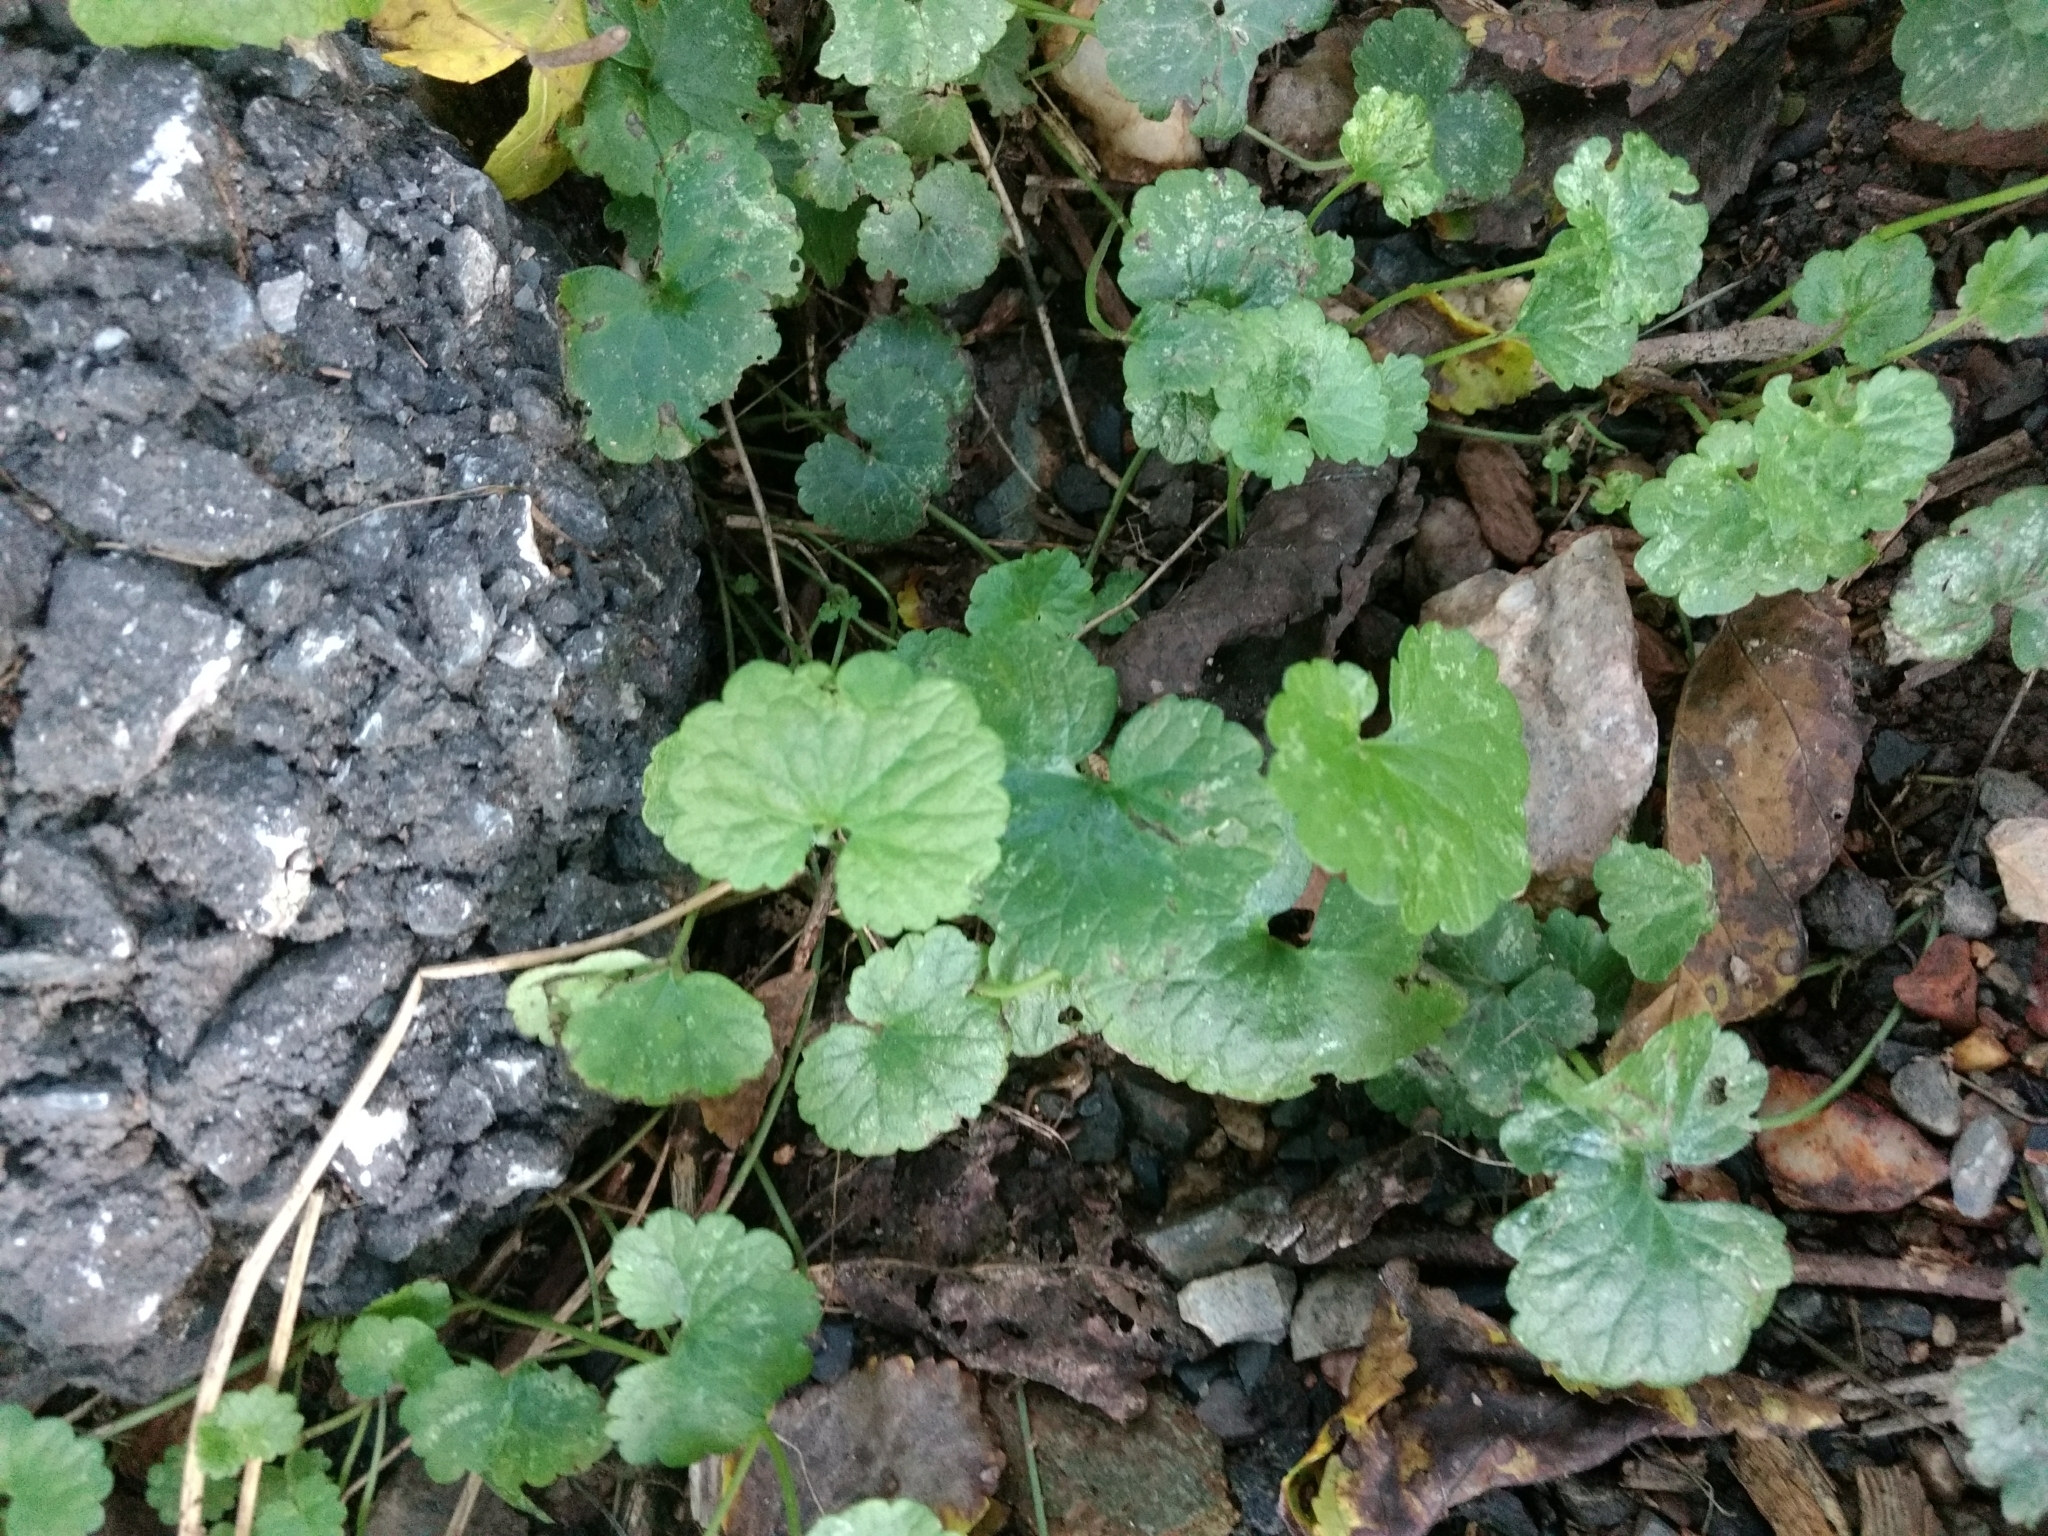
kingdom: Plantae
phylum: Tracheophyta
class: Magnoliopsida
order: Lamiales
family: Lamiaceae
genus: Glechoma
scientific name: Glechoma hederacea
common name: Ground ivy
